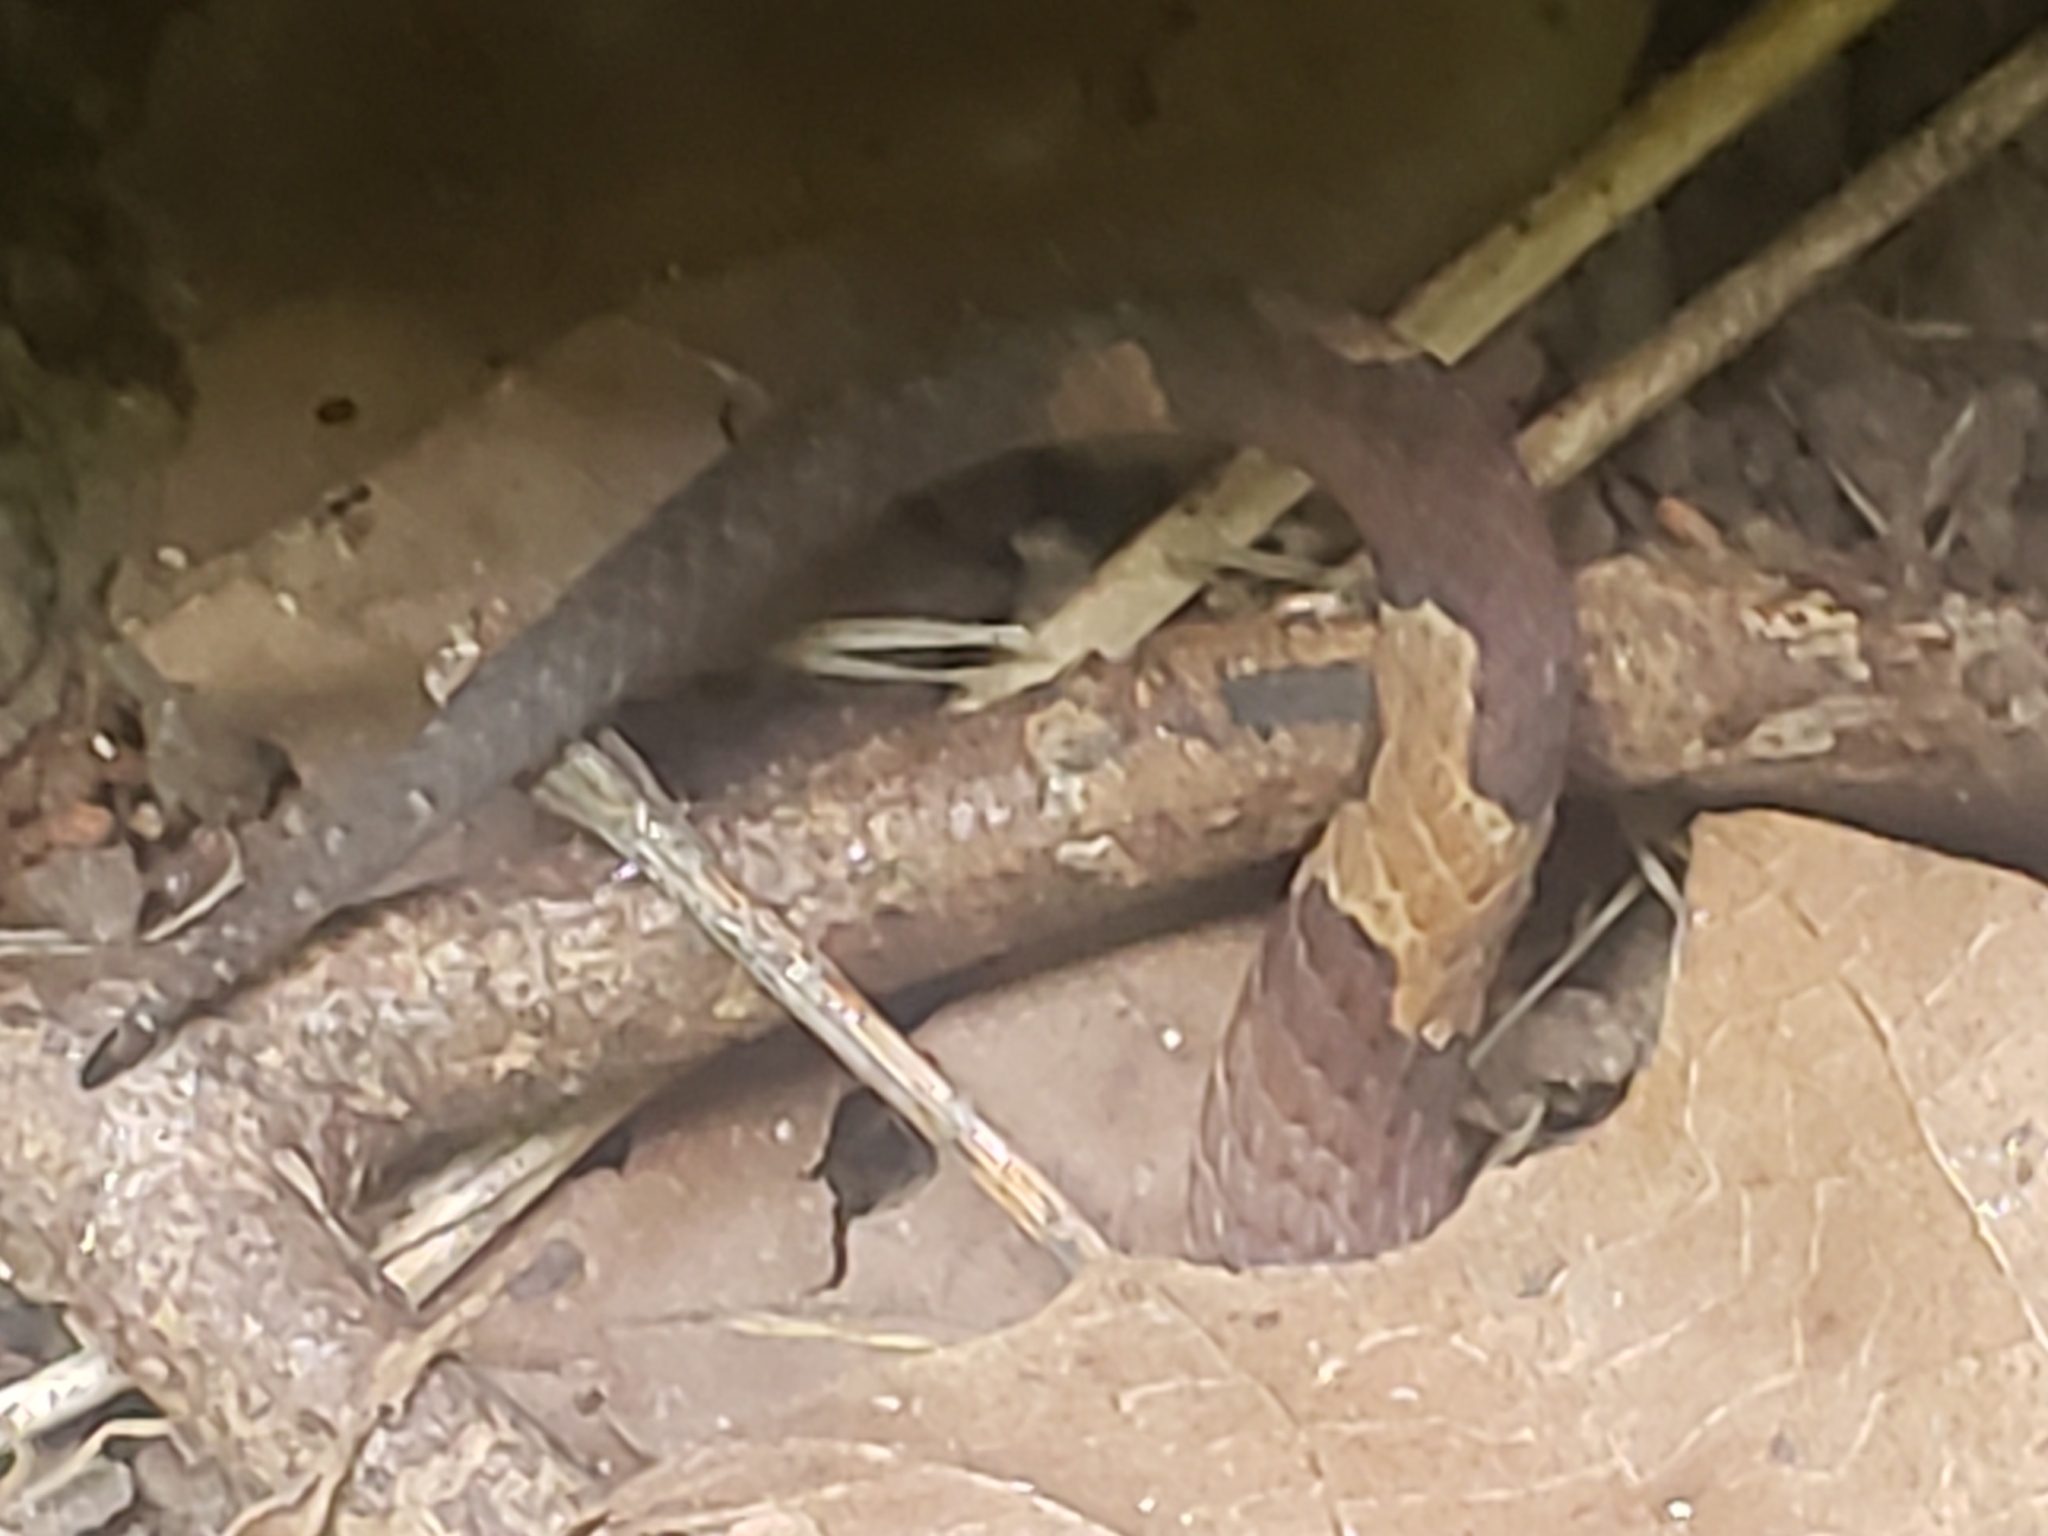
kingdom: Animalia
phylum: Chordata
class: Squamata
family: Viperidae
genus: Agkistrodon
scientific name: Agkistrodon contortrix
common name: Northern copperhead
